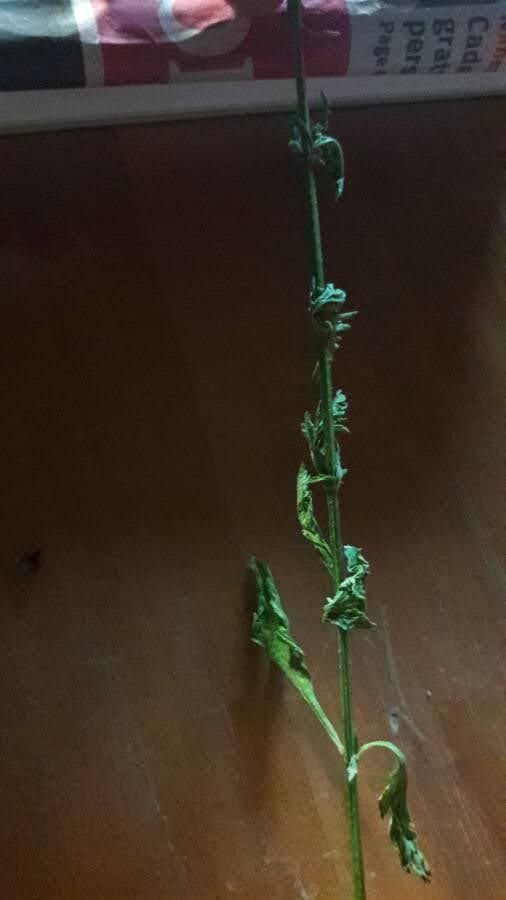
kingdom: Plantae
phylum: Tracheophyta
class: Magnoliopsida
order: Lamiales
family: Verbenaceae
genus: Verbena
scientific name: Verbena officinalis
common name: Vervain
